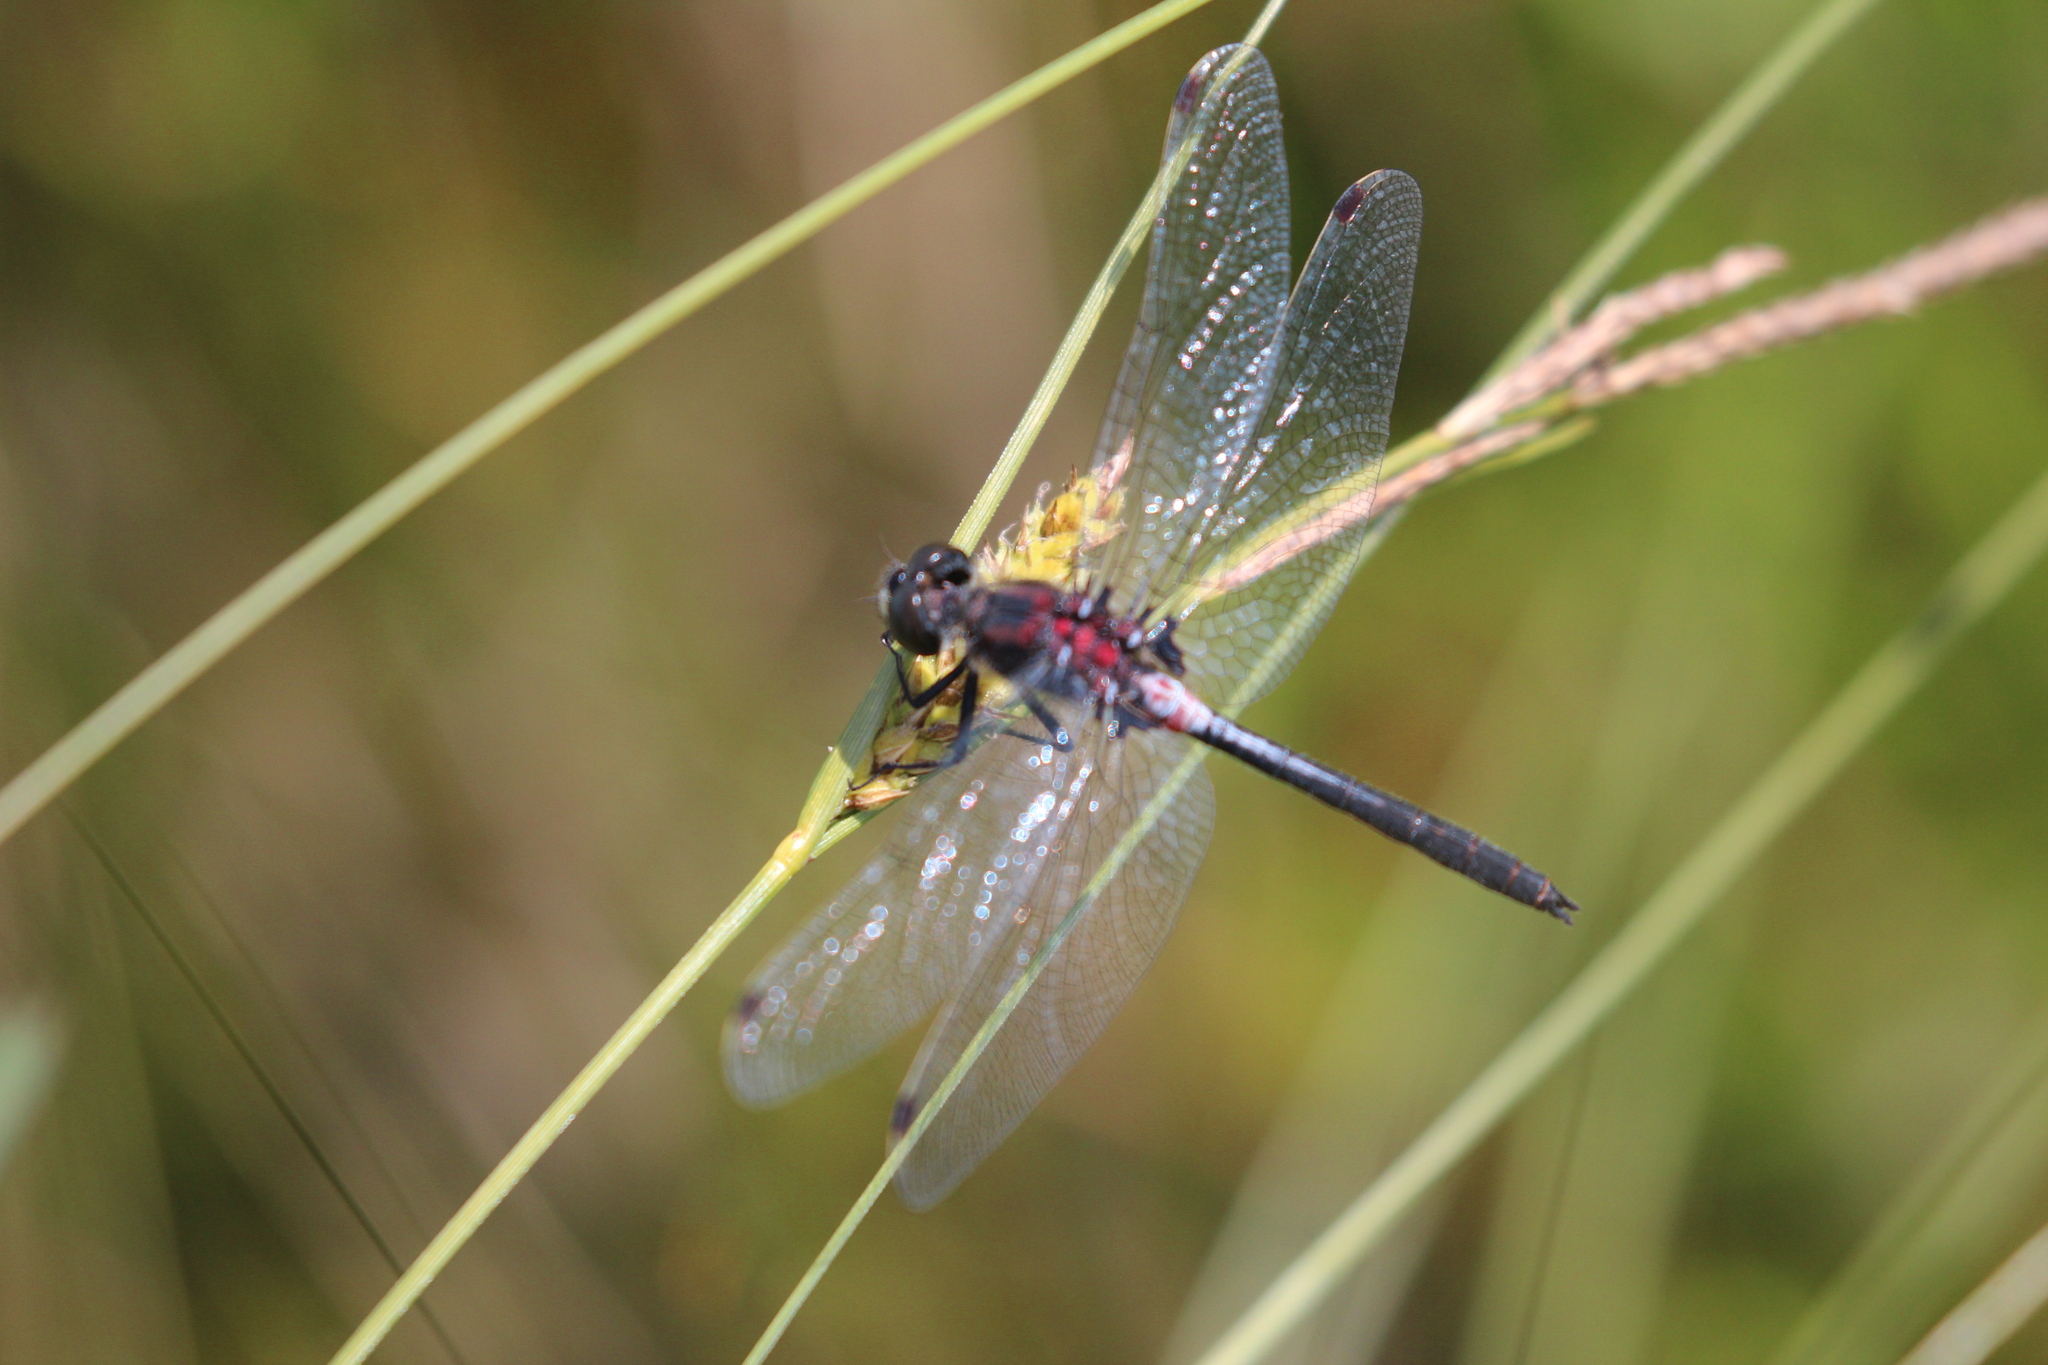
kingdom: Animalia
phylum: Arthropoda
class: Insecta
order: Odonata
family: Libellulidae
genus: Leucorrhinia
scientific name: Leucorrhinia proxima
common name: Belted whiteface
